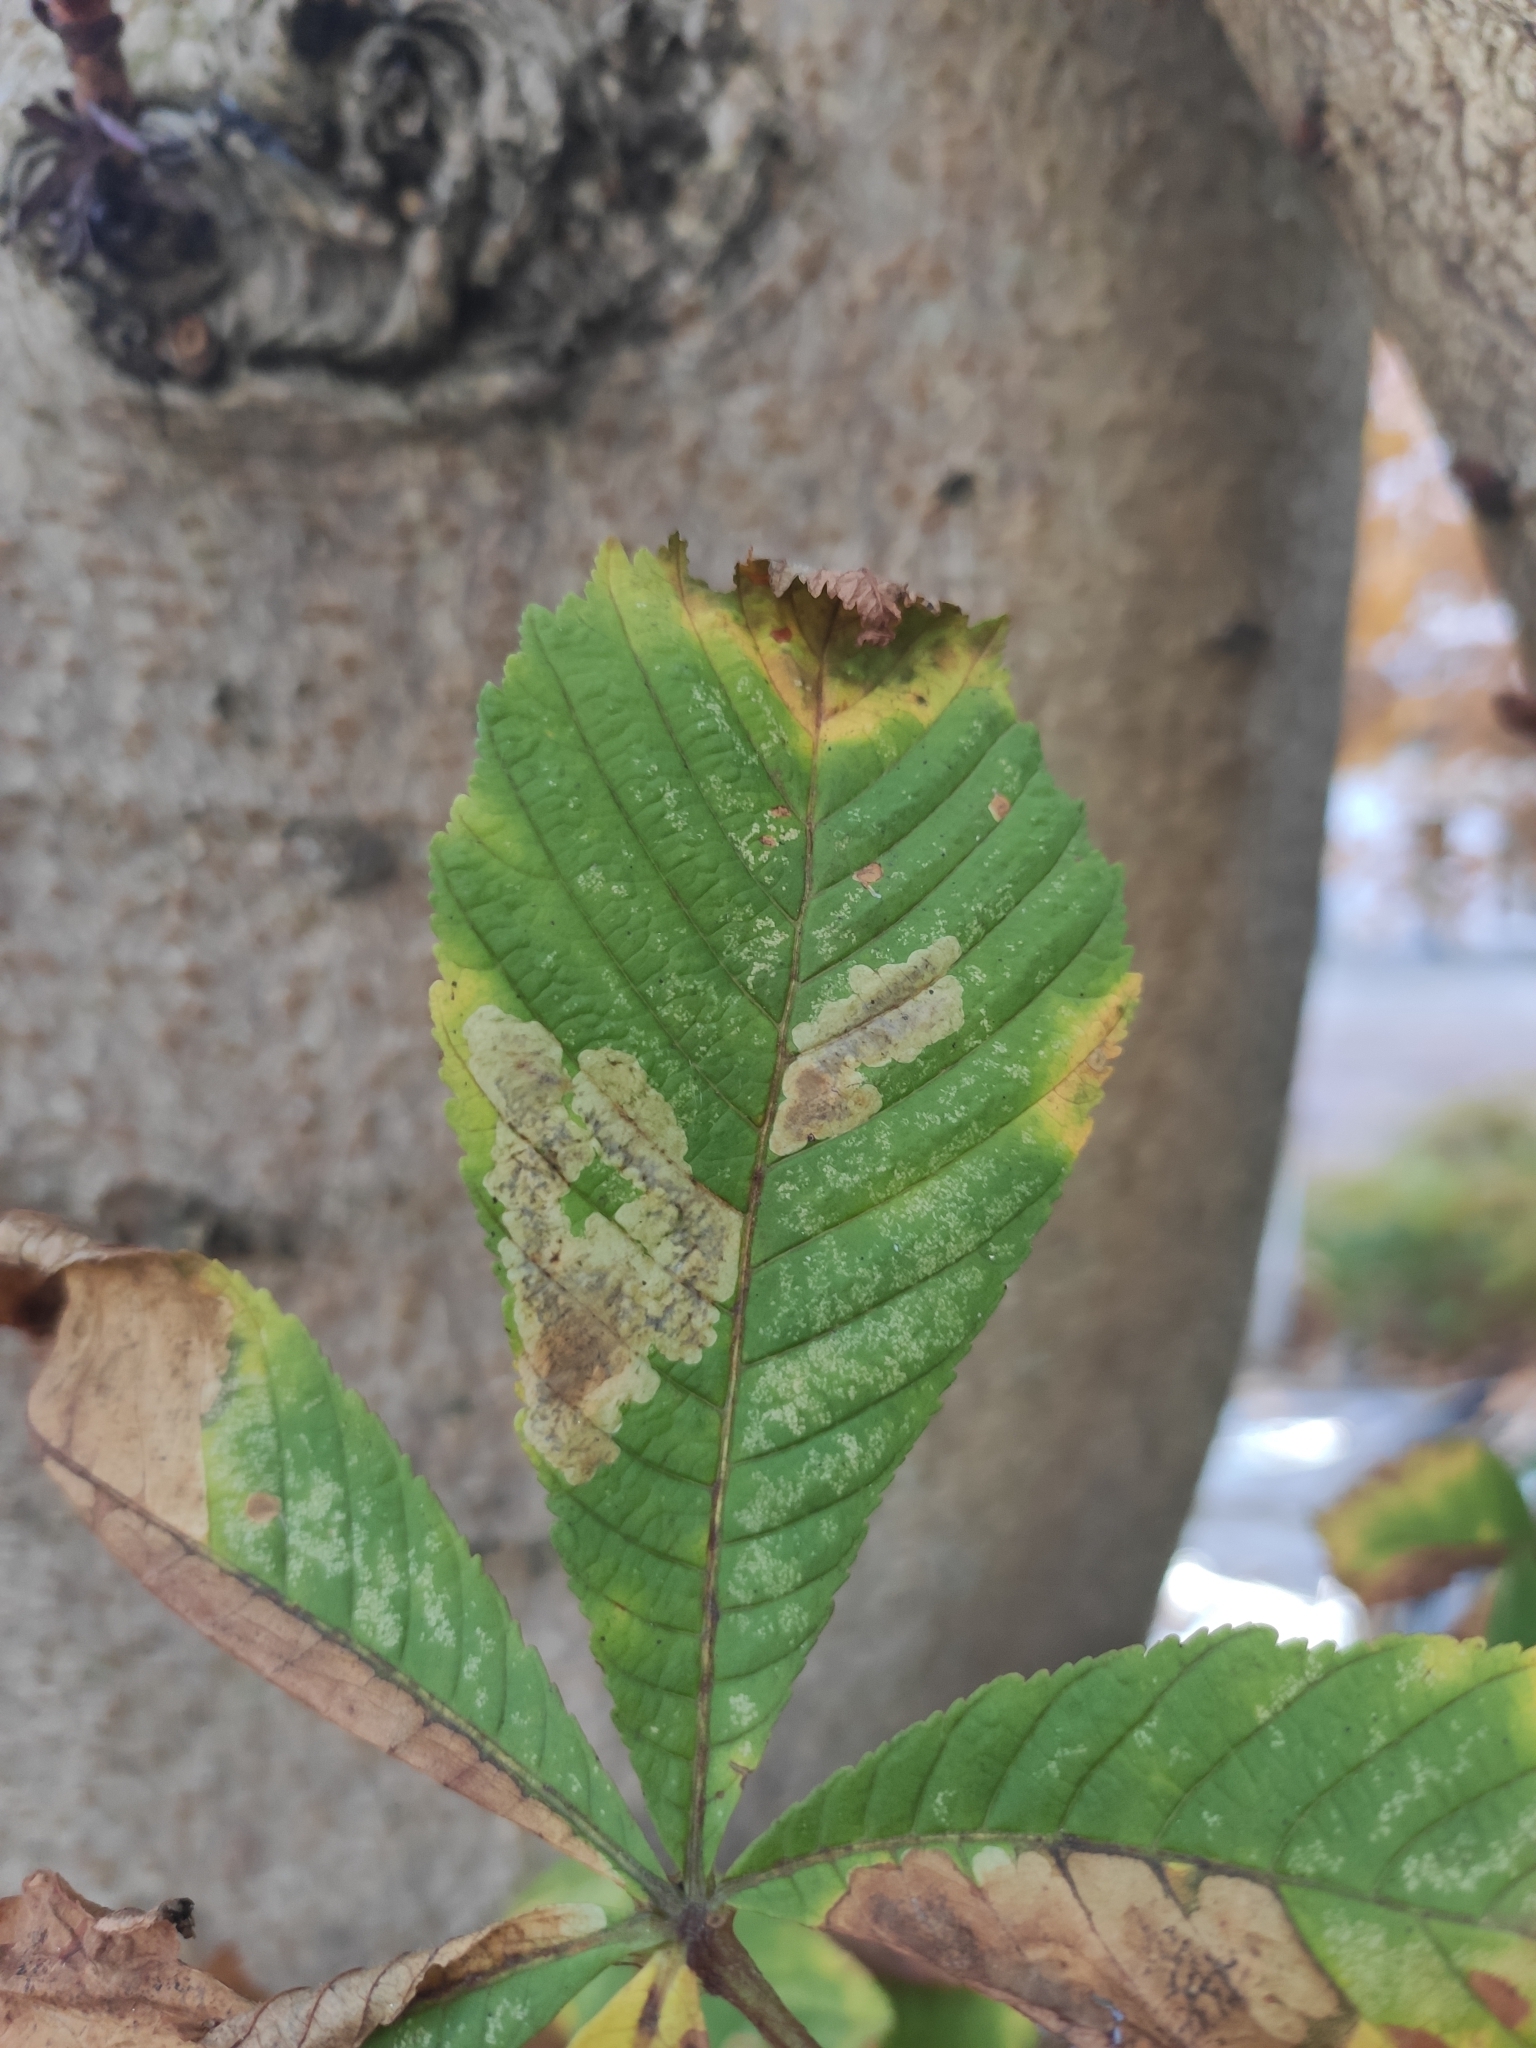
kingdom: Animalia
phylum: Arthropoda
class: Insecta
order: Lepidoptera
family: Gracillariidae
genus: Cameraria
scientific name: Cameraria ohridella
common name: Horse-chestnut leaf-miner
